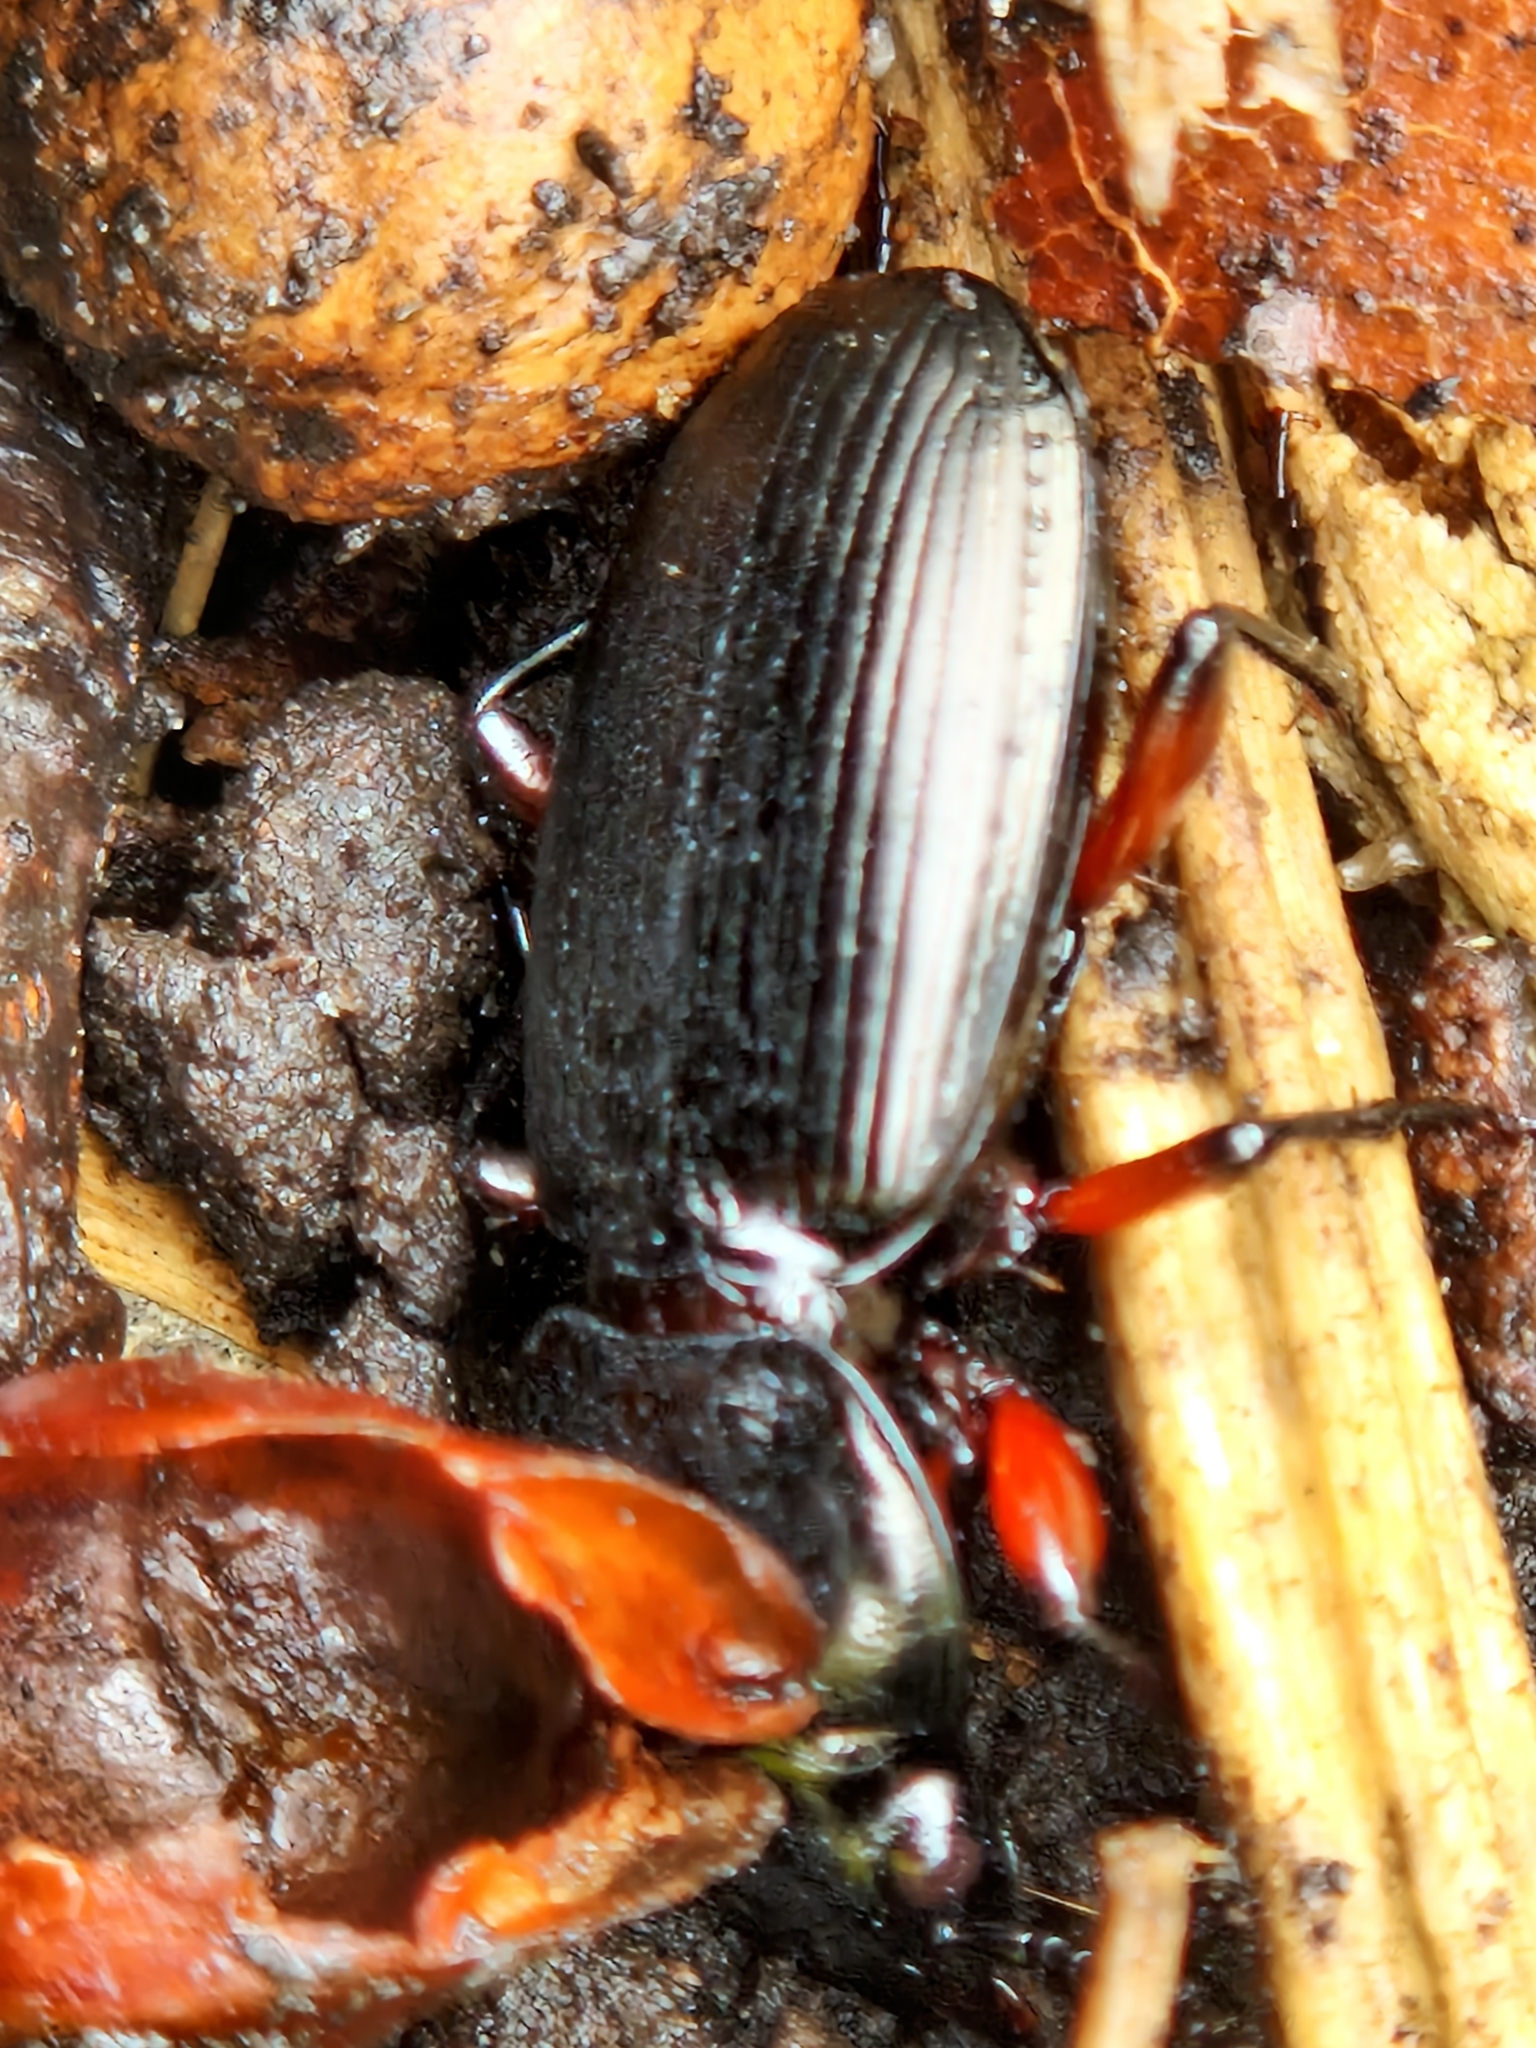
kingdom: Animalia
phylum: Arthropoda
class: Insecta
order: Coleoptera
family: Carabidae
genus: Pterostichus
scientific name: Pterostichus madidus
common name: Black clock
